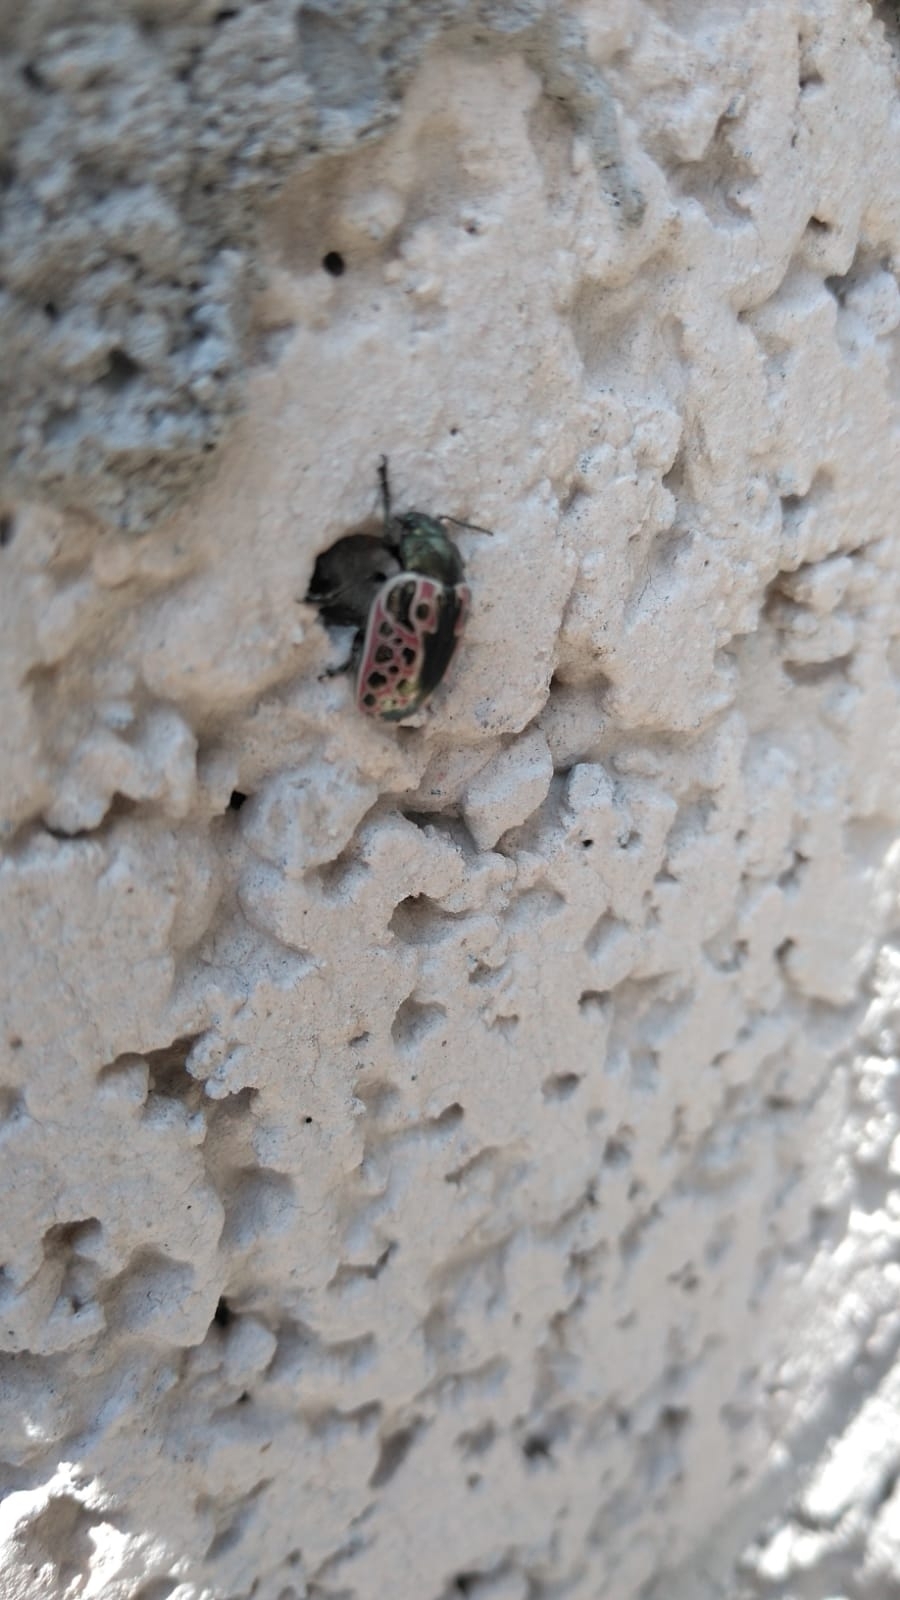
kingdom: Animalia
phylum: Arthropoda
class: Insecta
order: Coleoptera
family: Chrysomelidae
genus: Calligrapha
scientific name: Calligrapha diversa
